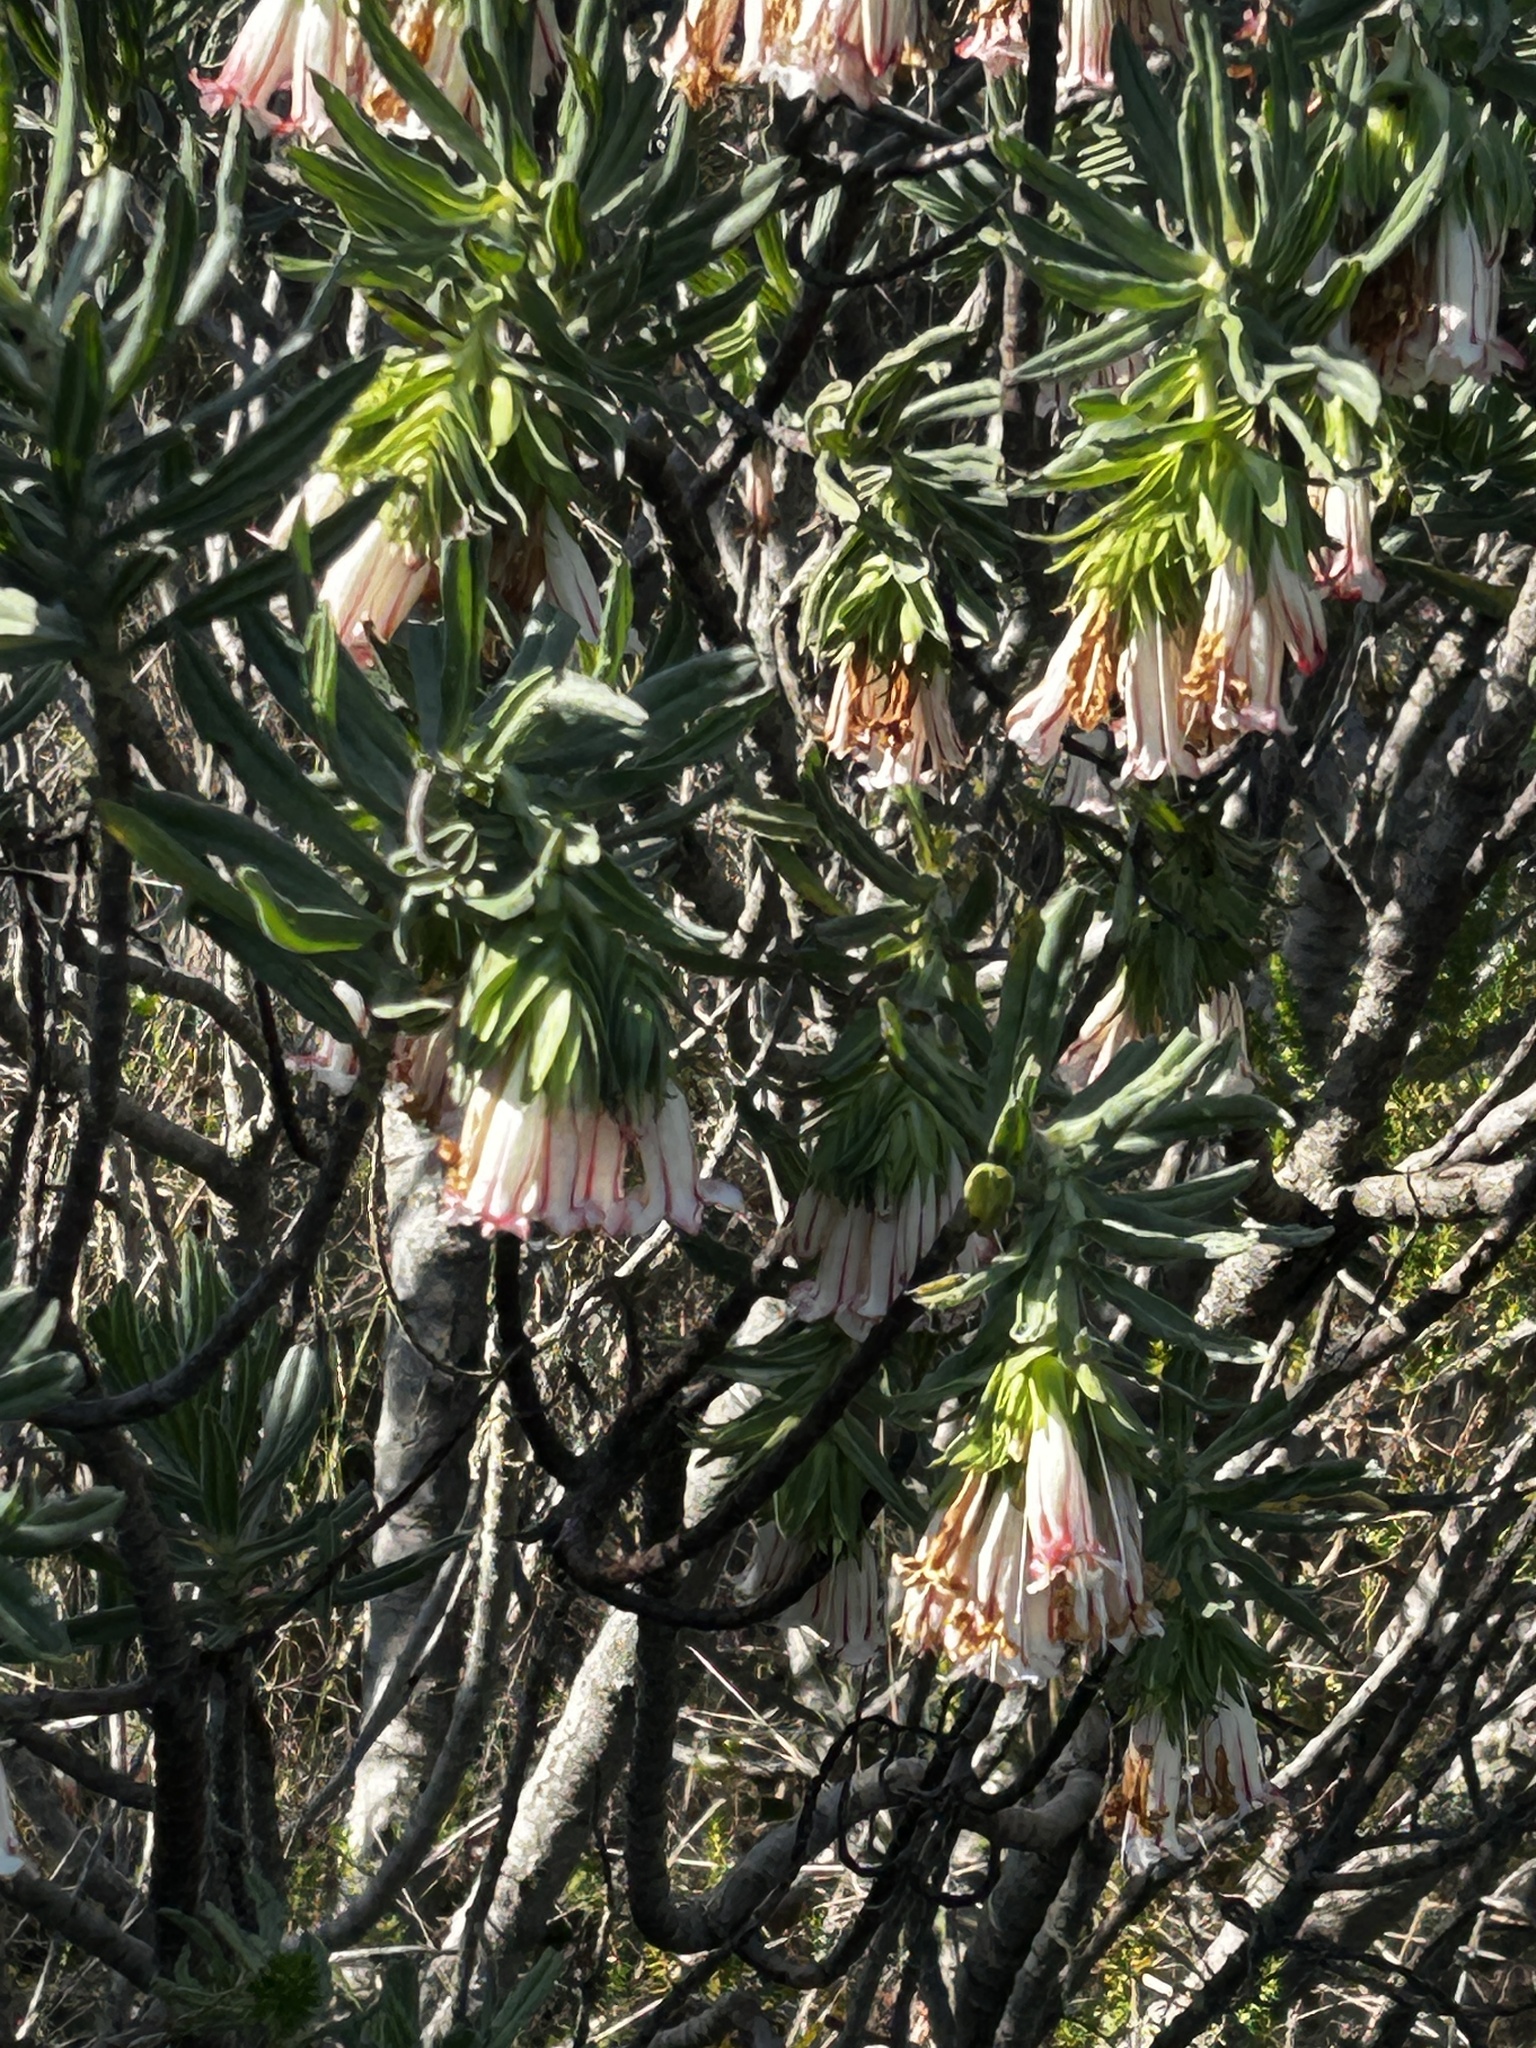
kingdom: Plantae
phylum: Tracheophyta
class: Magnoliopsida
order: Boraginales
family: Boraginaceae
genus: Lobostemon
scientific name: Lobostemon belliformis
